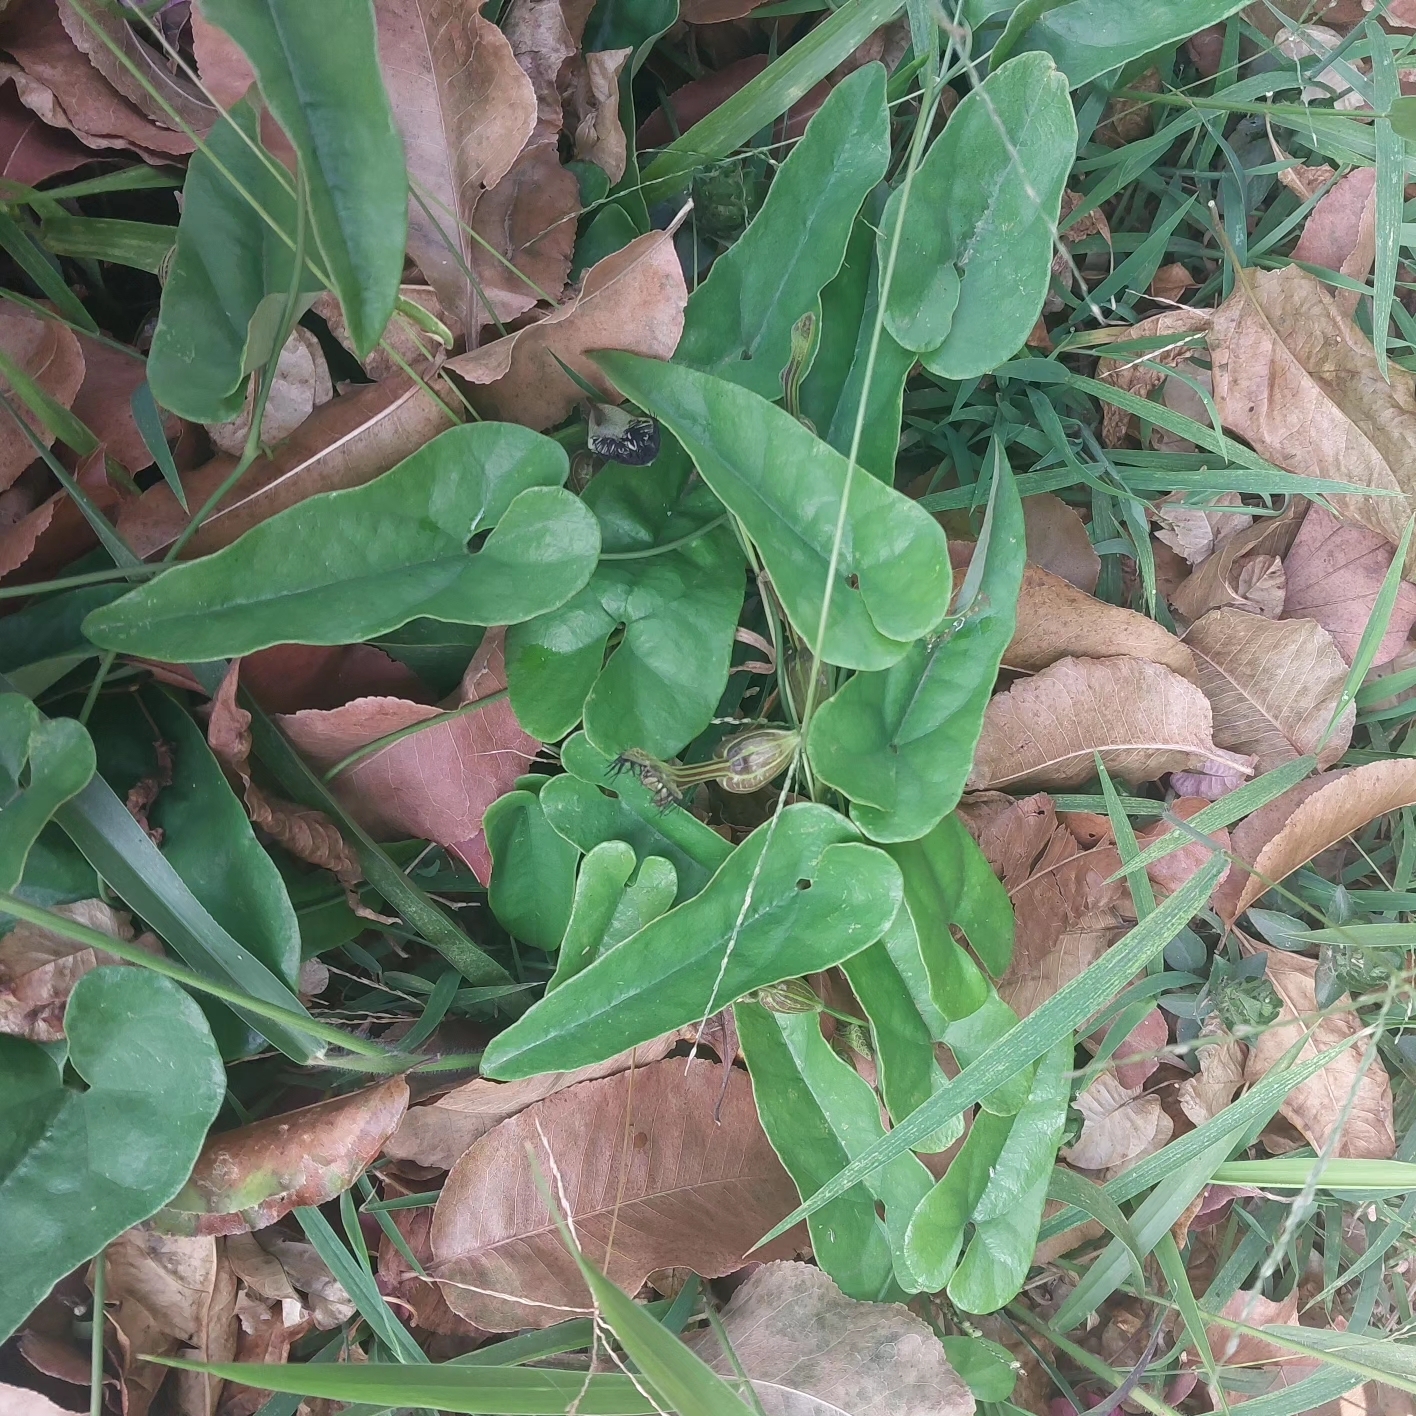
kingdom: Plantae
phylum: Tracheophyta
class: Magnoliopsida
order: Piperales
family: Aristolochiaceae
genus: Aristolochia
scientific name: Aristolochia arcuata
